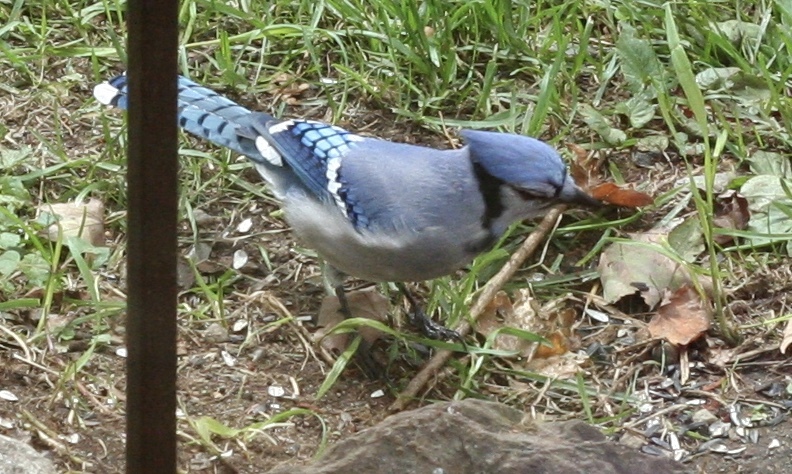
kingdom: Animalia
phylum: Chordata
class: Aves
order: Passeriformes
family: Corvidae
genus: Cyanocitta
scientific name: Cyanocitta cristata
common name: Blue jay
